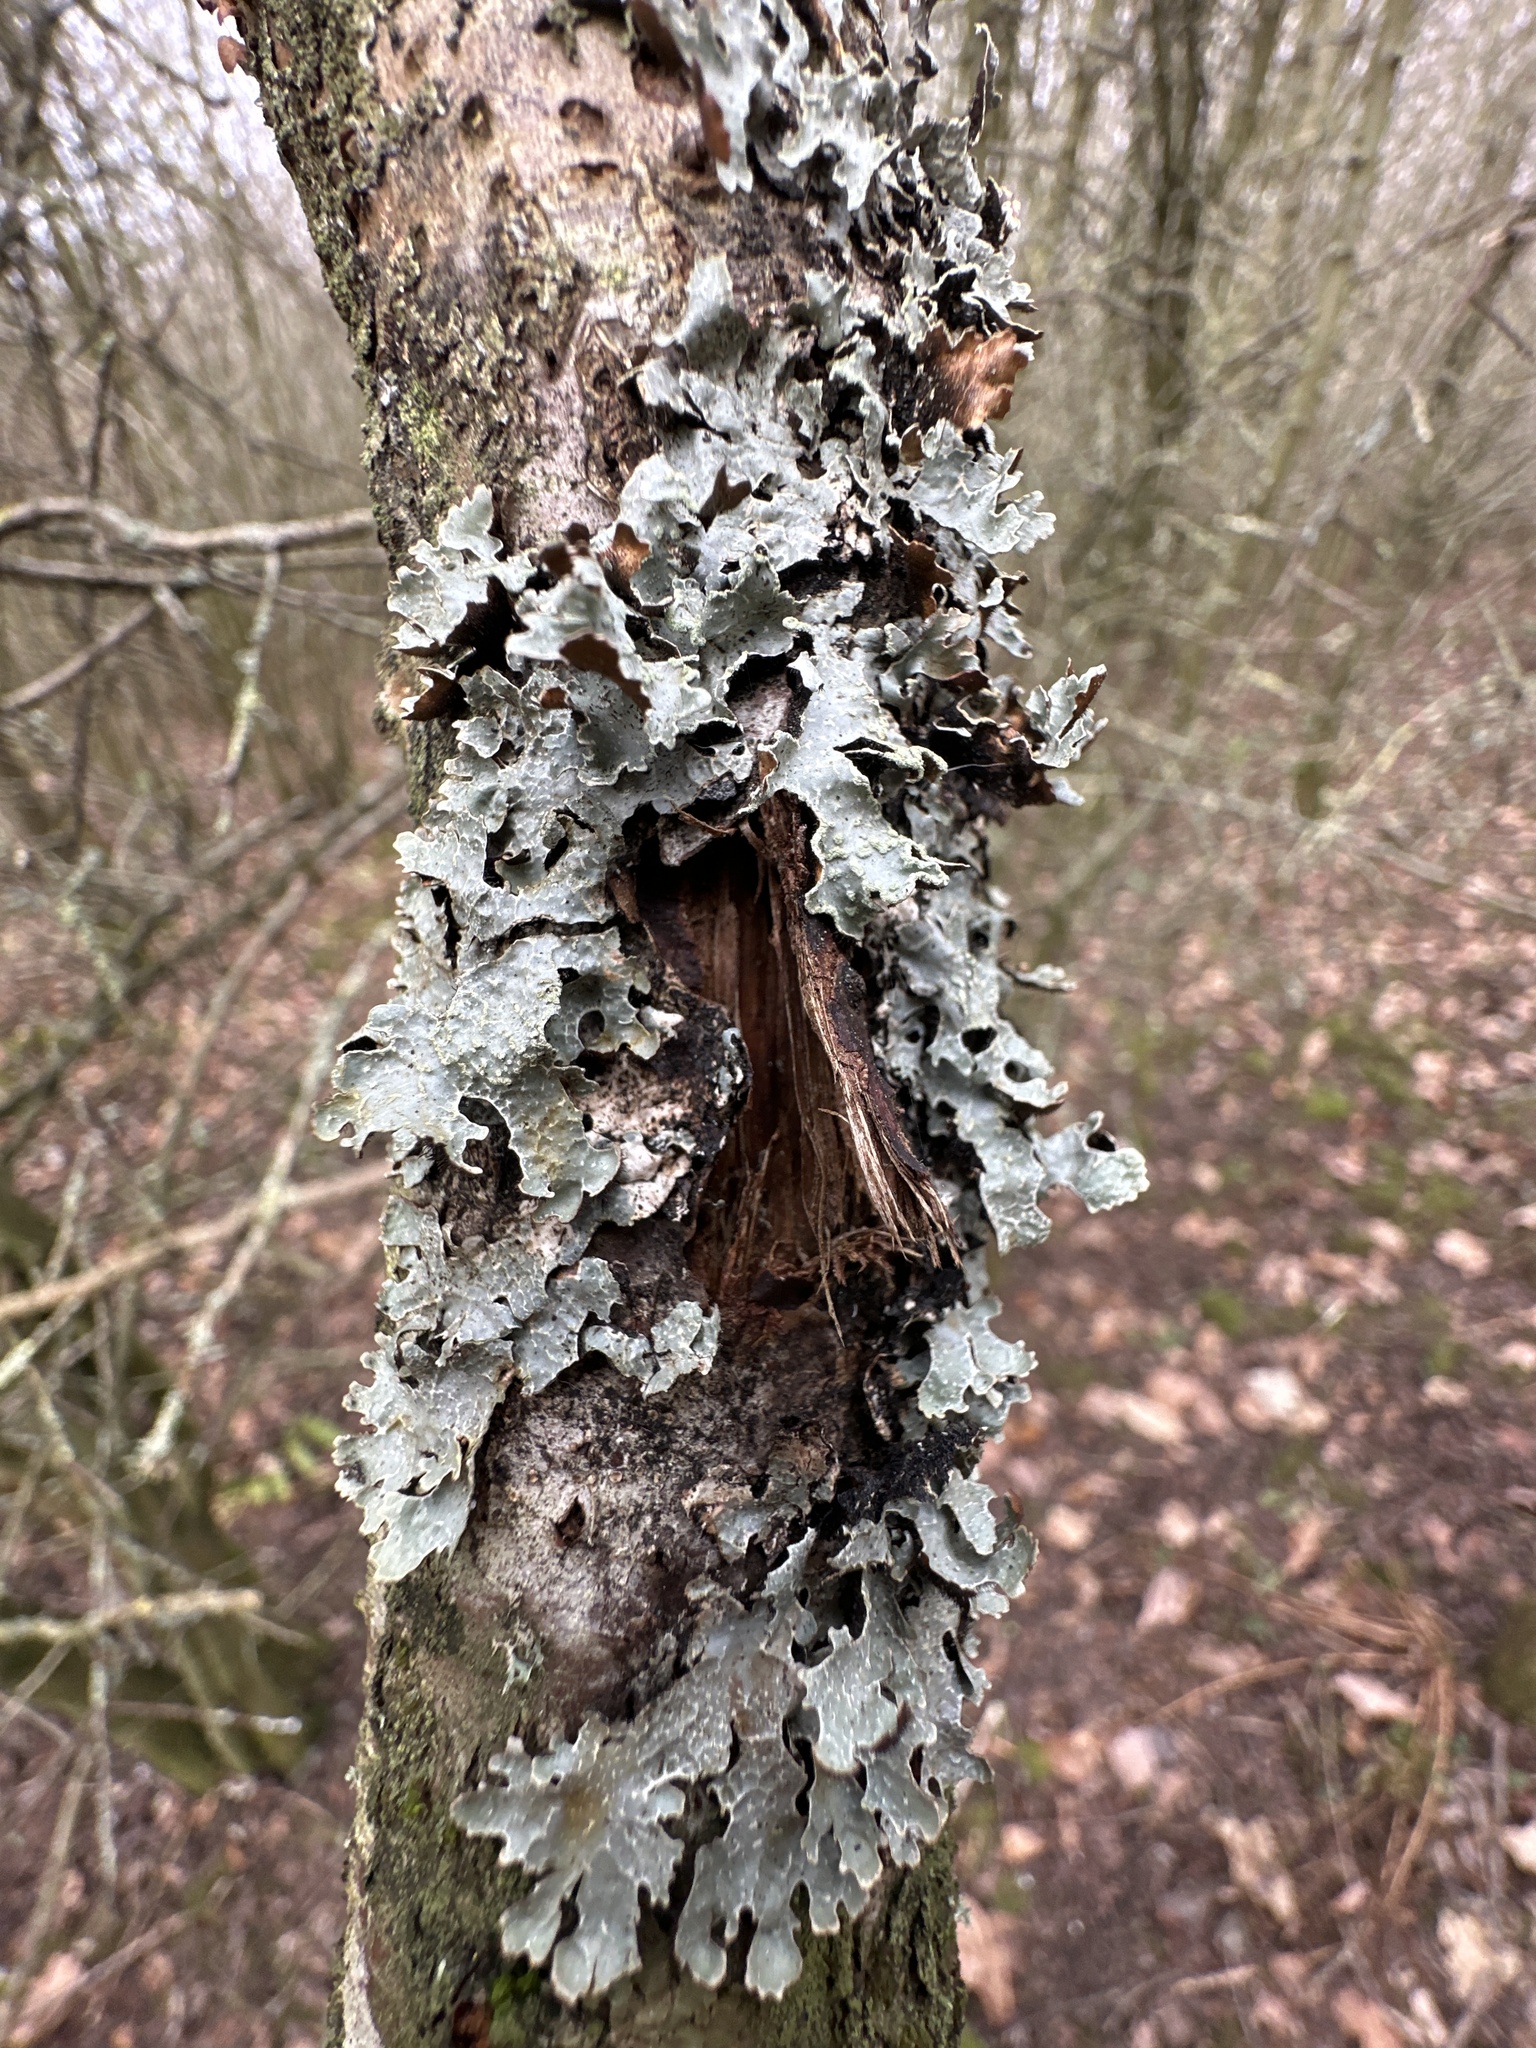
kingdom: Fungi
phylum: Ascomycota
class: Lecanoromycetes
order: Lecanorales
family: Parmeliaceae
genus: Parmelia
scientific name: Parmelia sulcata
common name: Netted shield lichen
